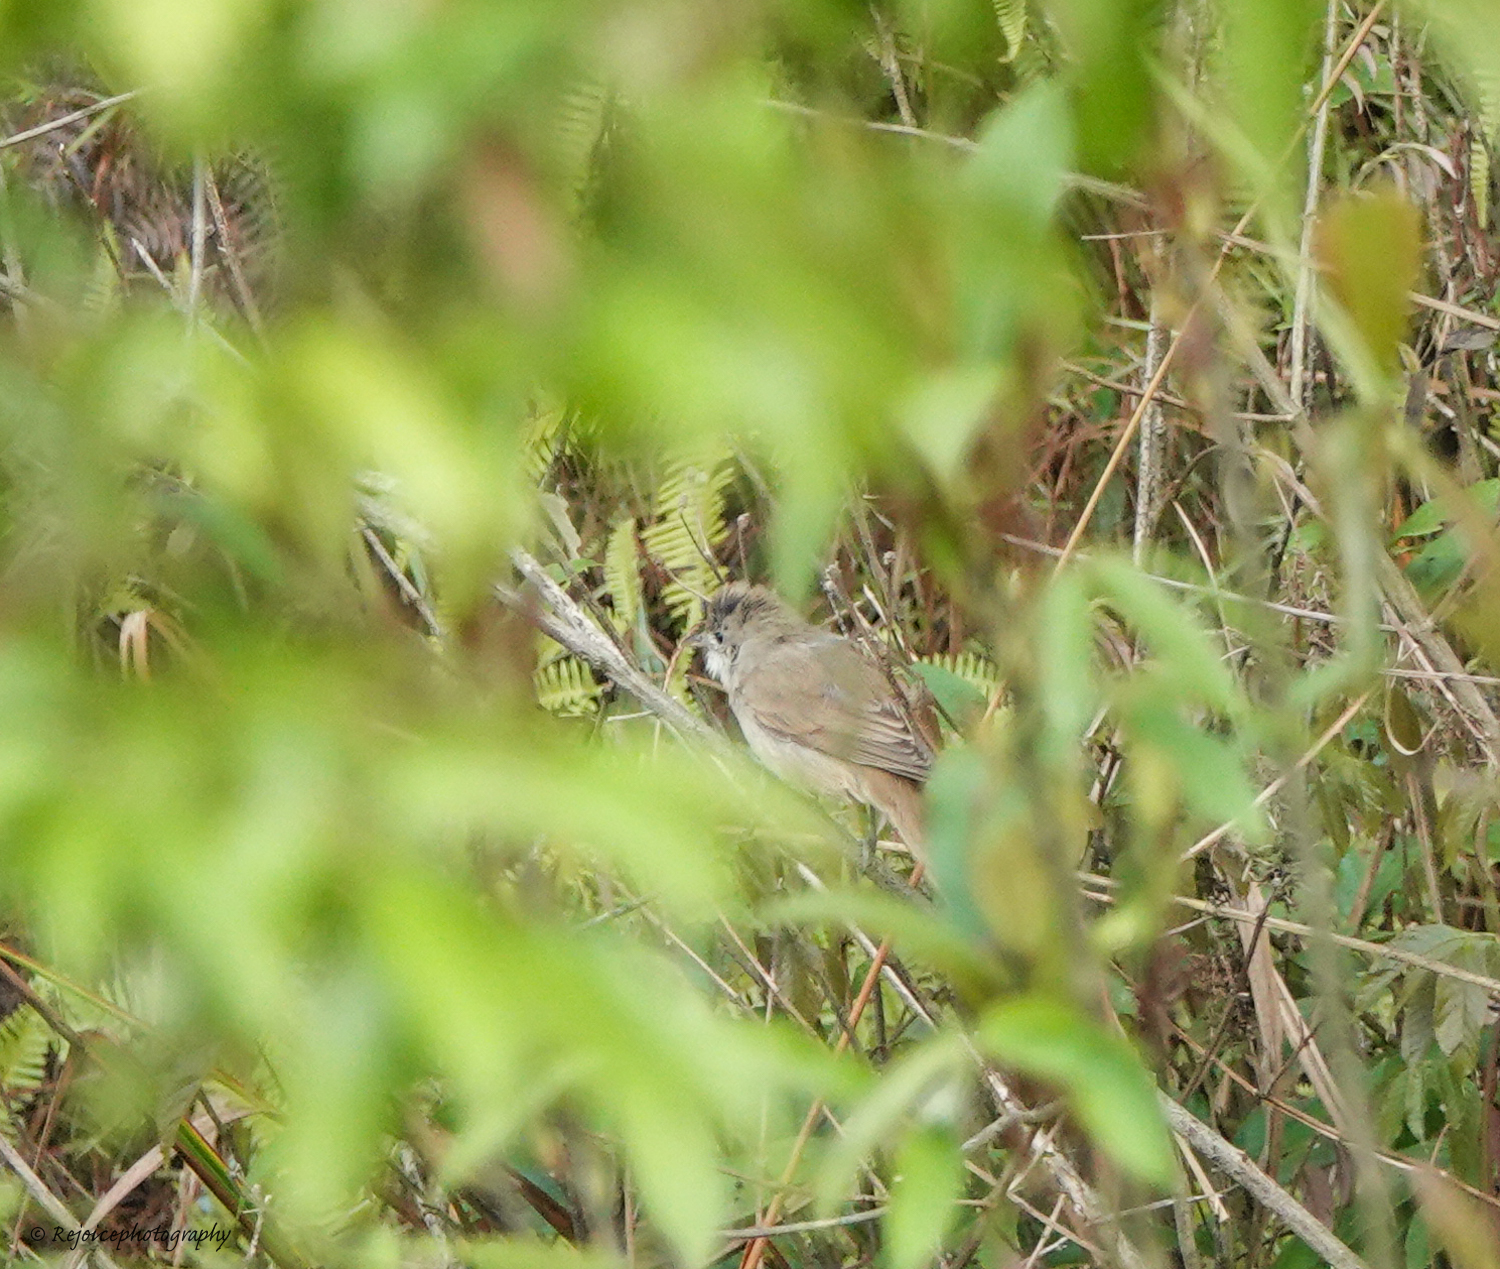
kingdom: Animalia
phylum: Chordata
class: Aves
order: Passeriformes
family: Acrocephalidae
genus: Iduna
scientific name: Iduna aedon
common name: Thick-billed warbler
